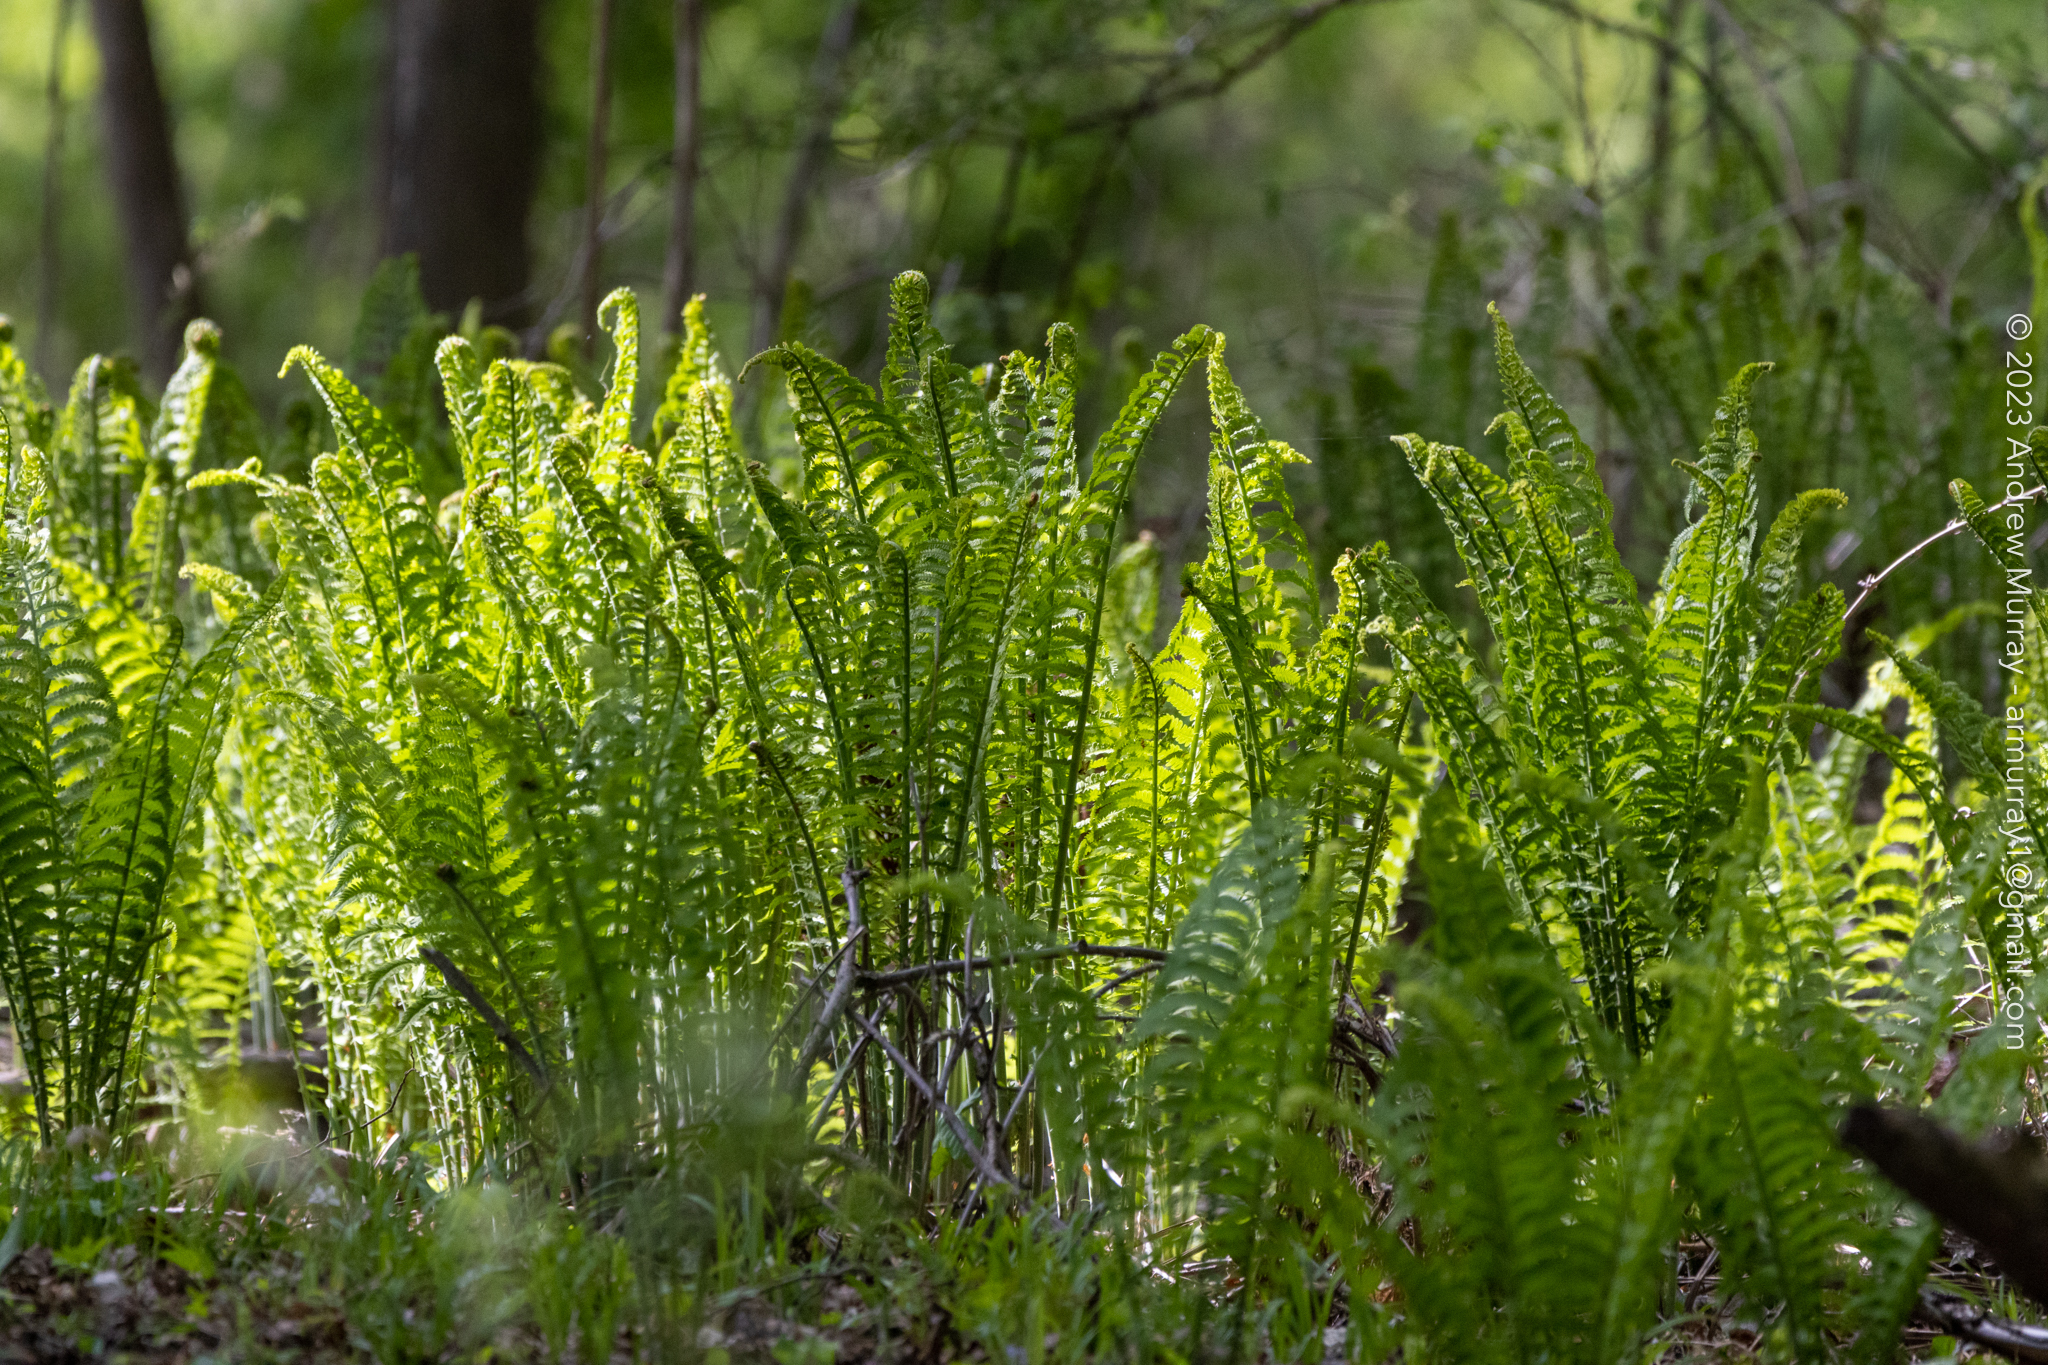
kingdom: Plantae
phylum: Tracheophyta
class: Polypodiopsida
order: Polypodiales
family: Onocleaceae
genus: Matteuccia
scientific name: Matteuccia struthiopteris
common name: Ostrich fern
